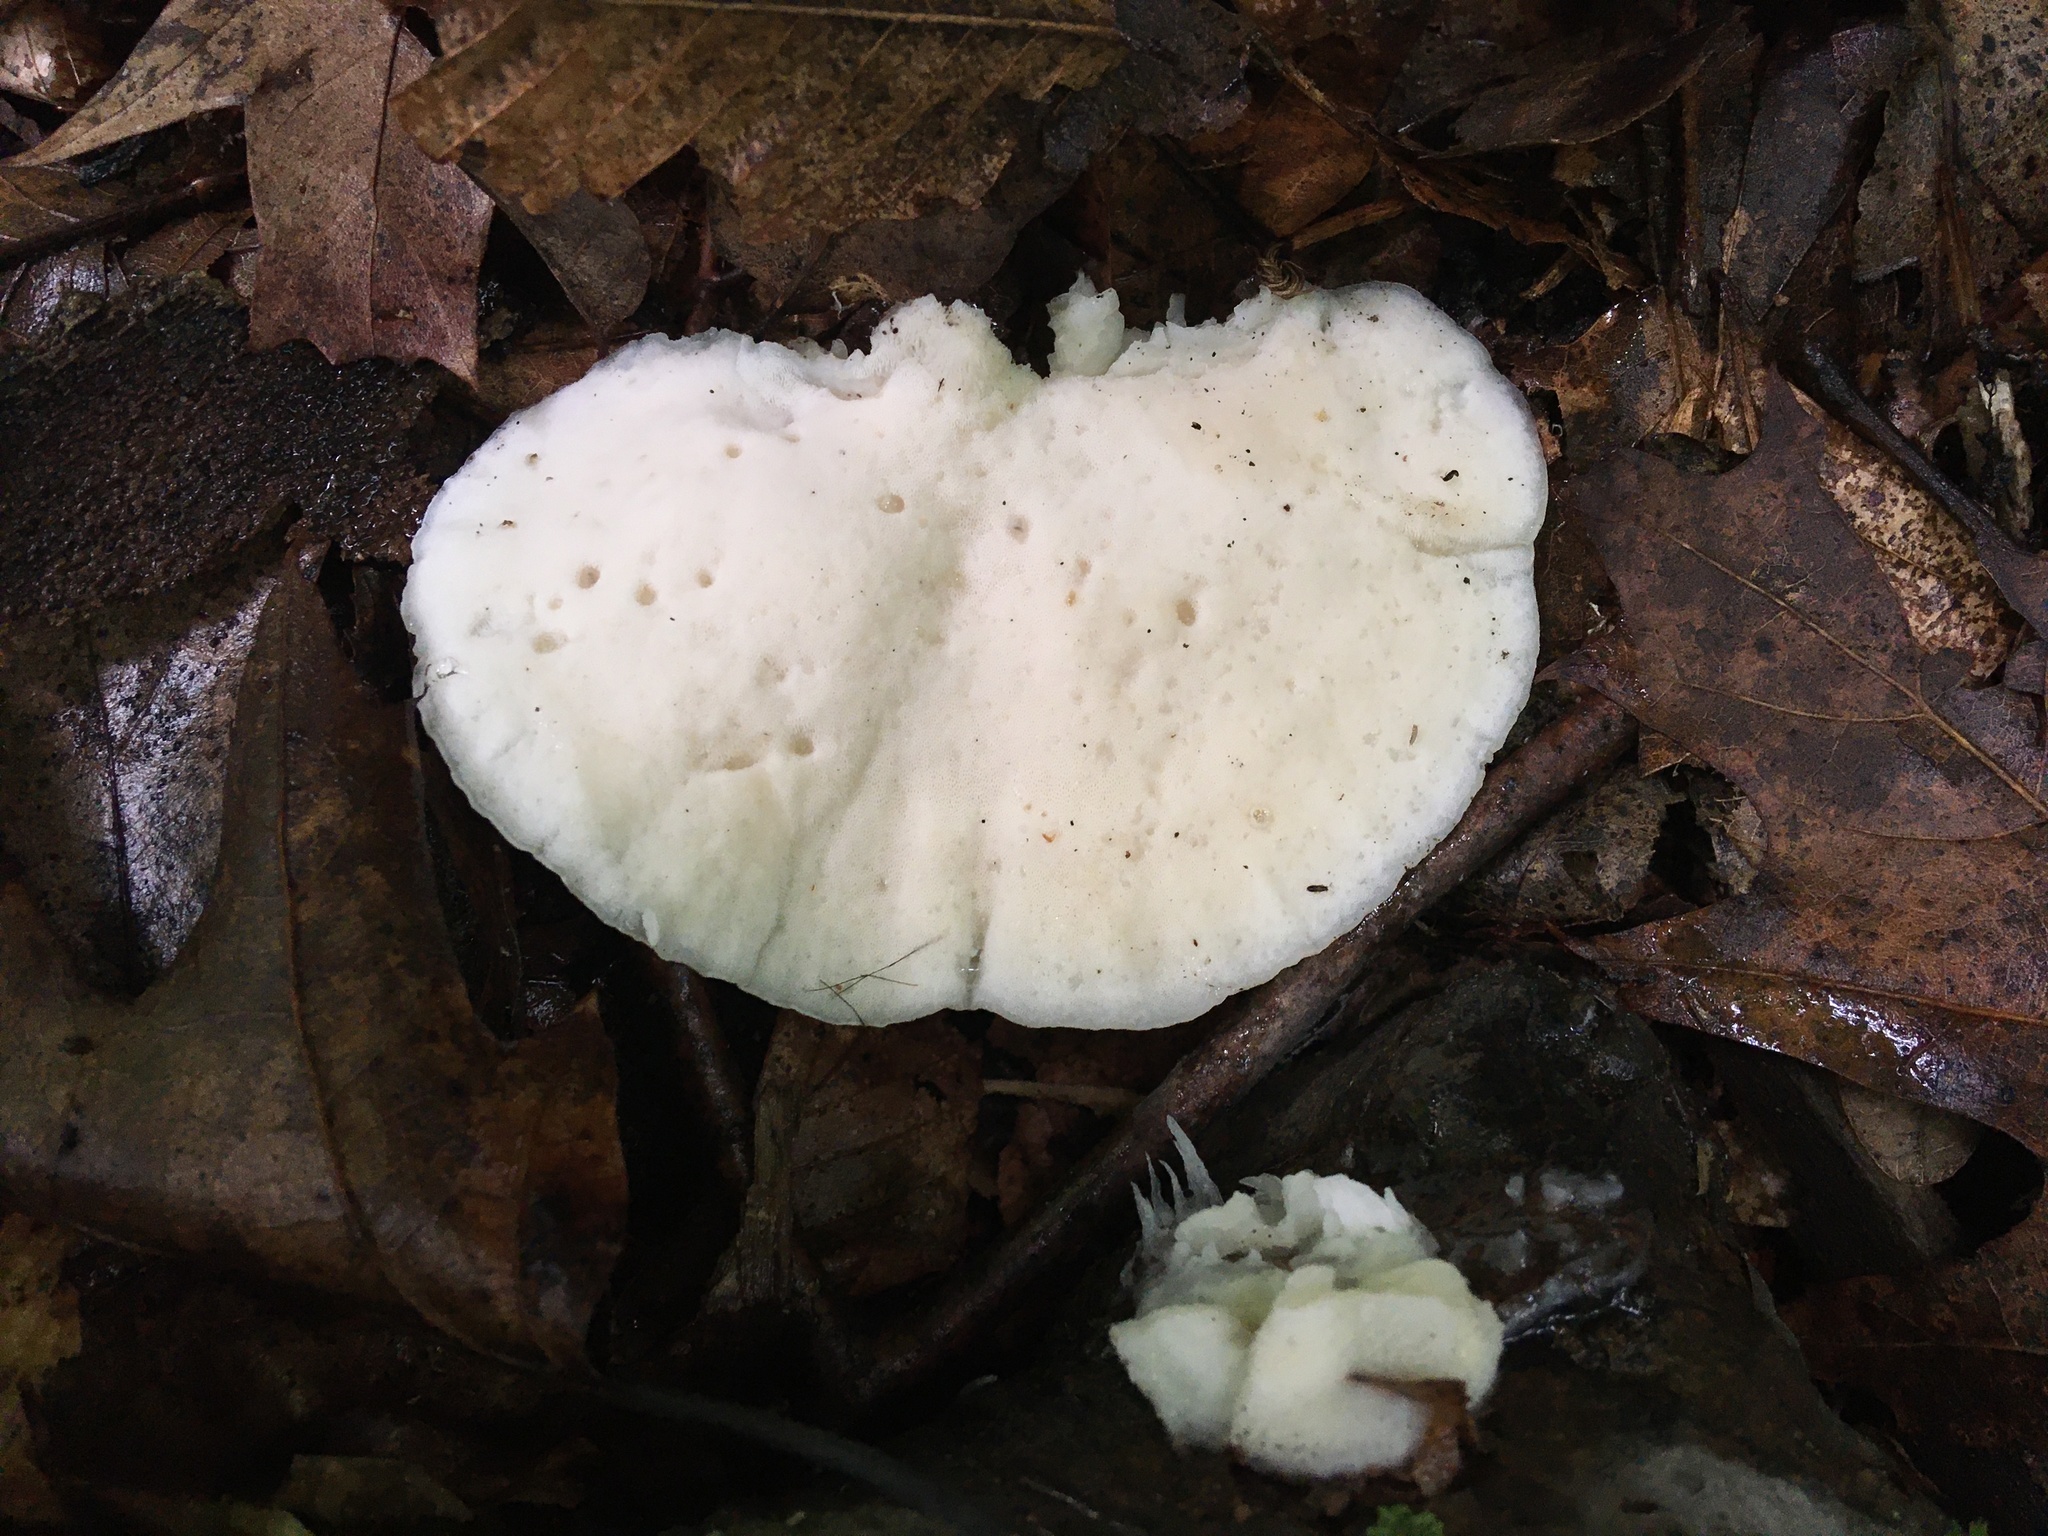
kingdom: Fungi
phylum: Basidiomycota
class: Agaricomycetes
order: Polyporales
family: Incrustoporiaceae
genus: Tyromyces
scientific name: Tyromyces chioneus
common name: White cheese polypore
